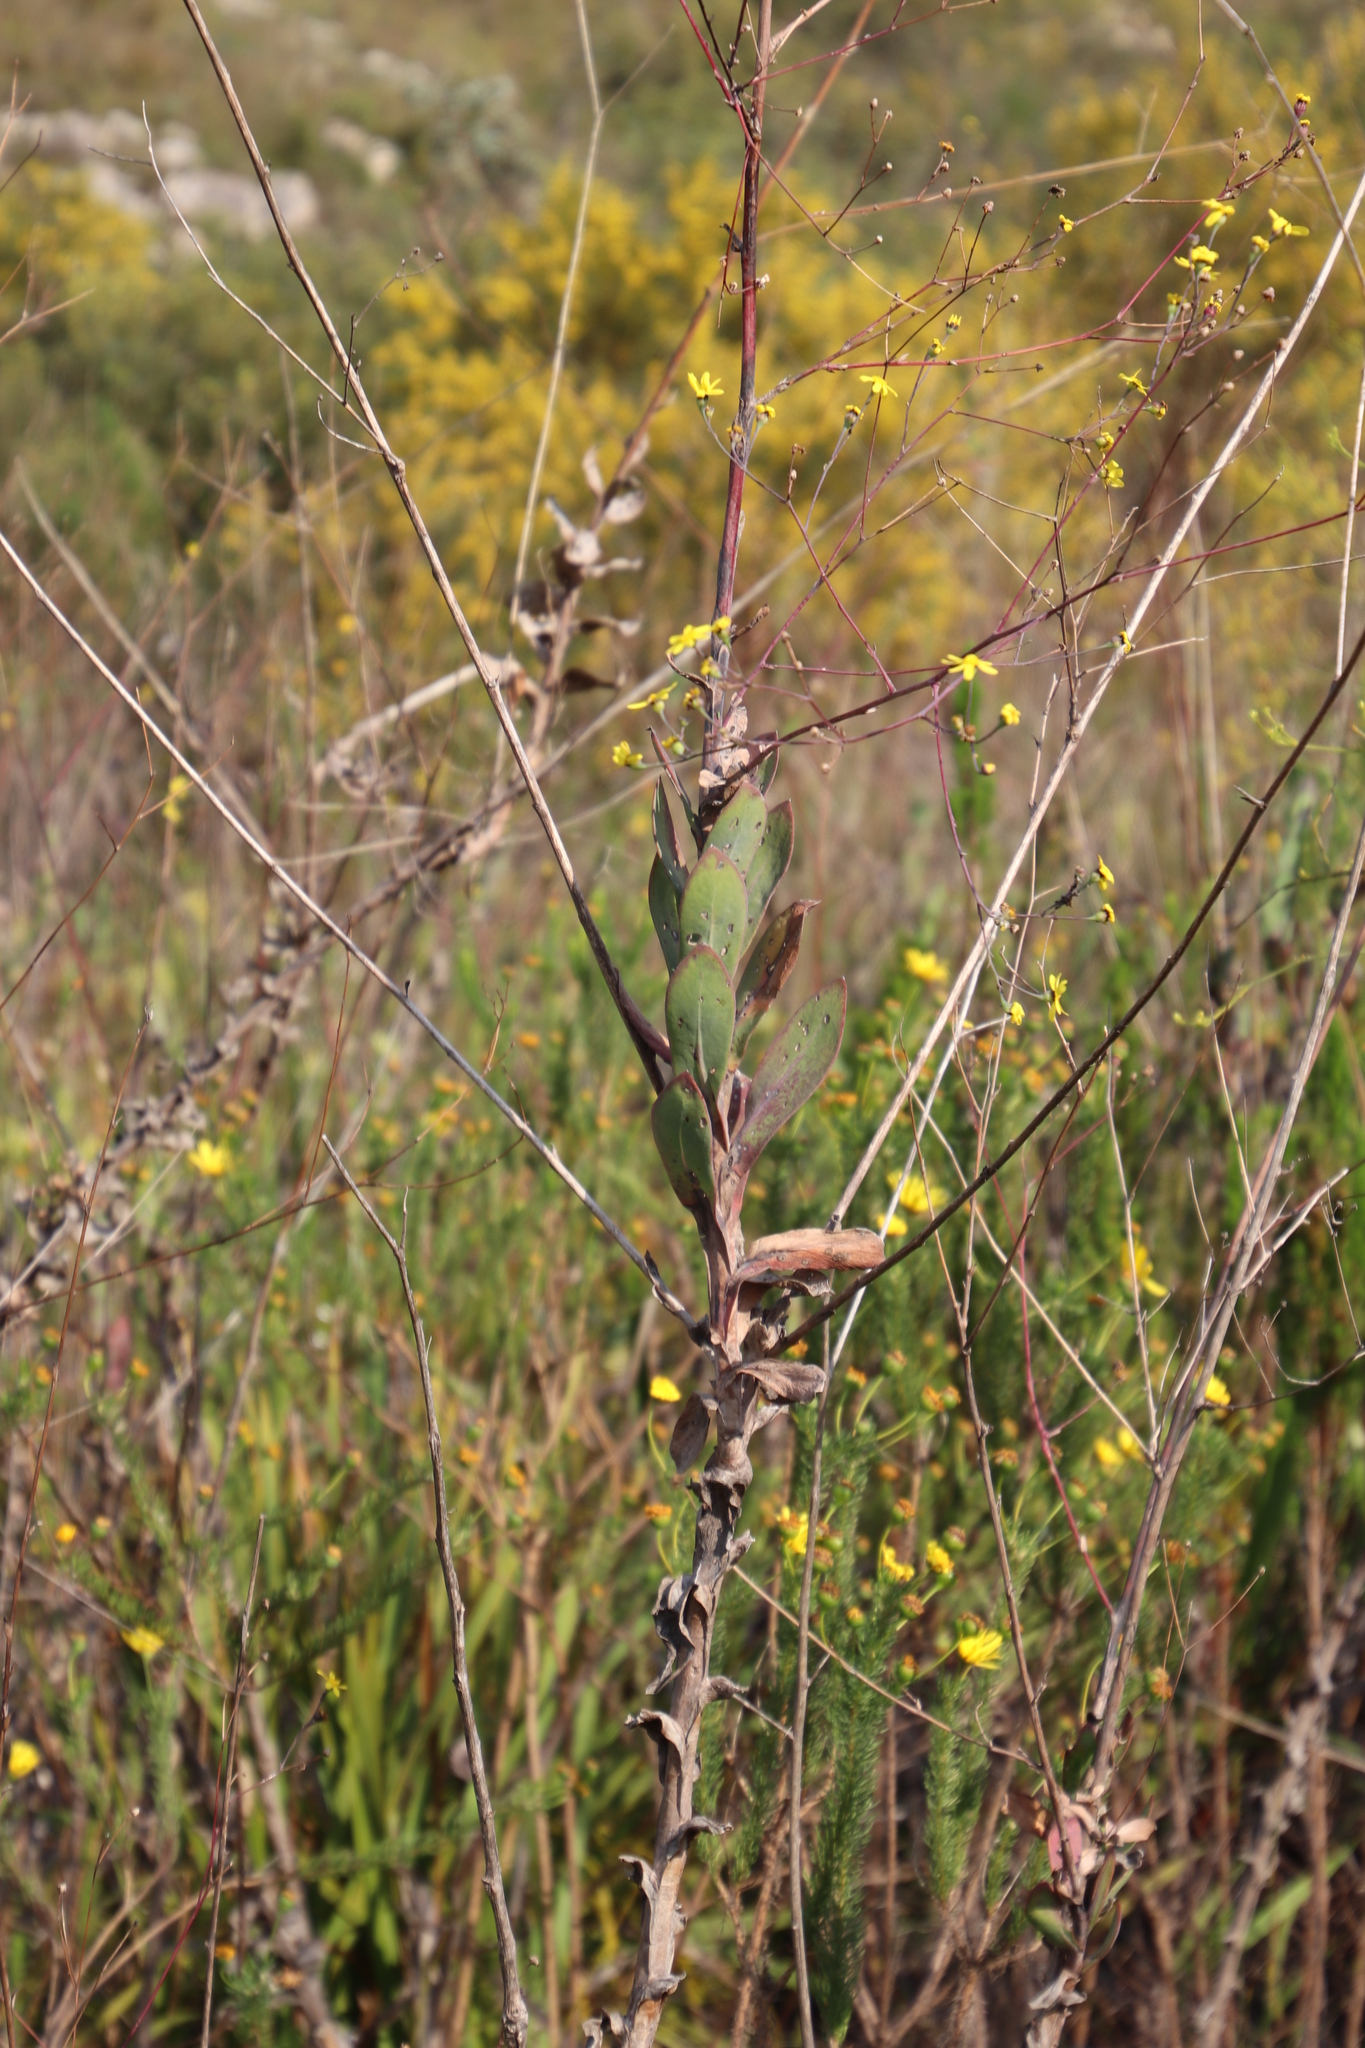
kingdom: Plantae
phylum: Tracheophyta
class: Magnoliopsida
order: Asterales
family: Asteraceae
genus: Othonna
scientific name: Othonna quinquedentata
